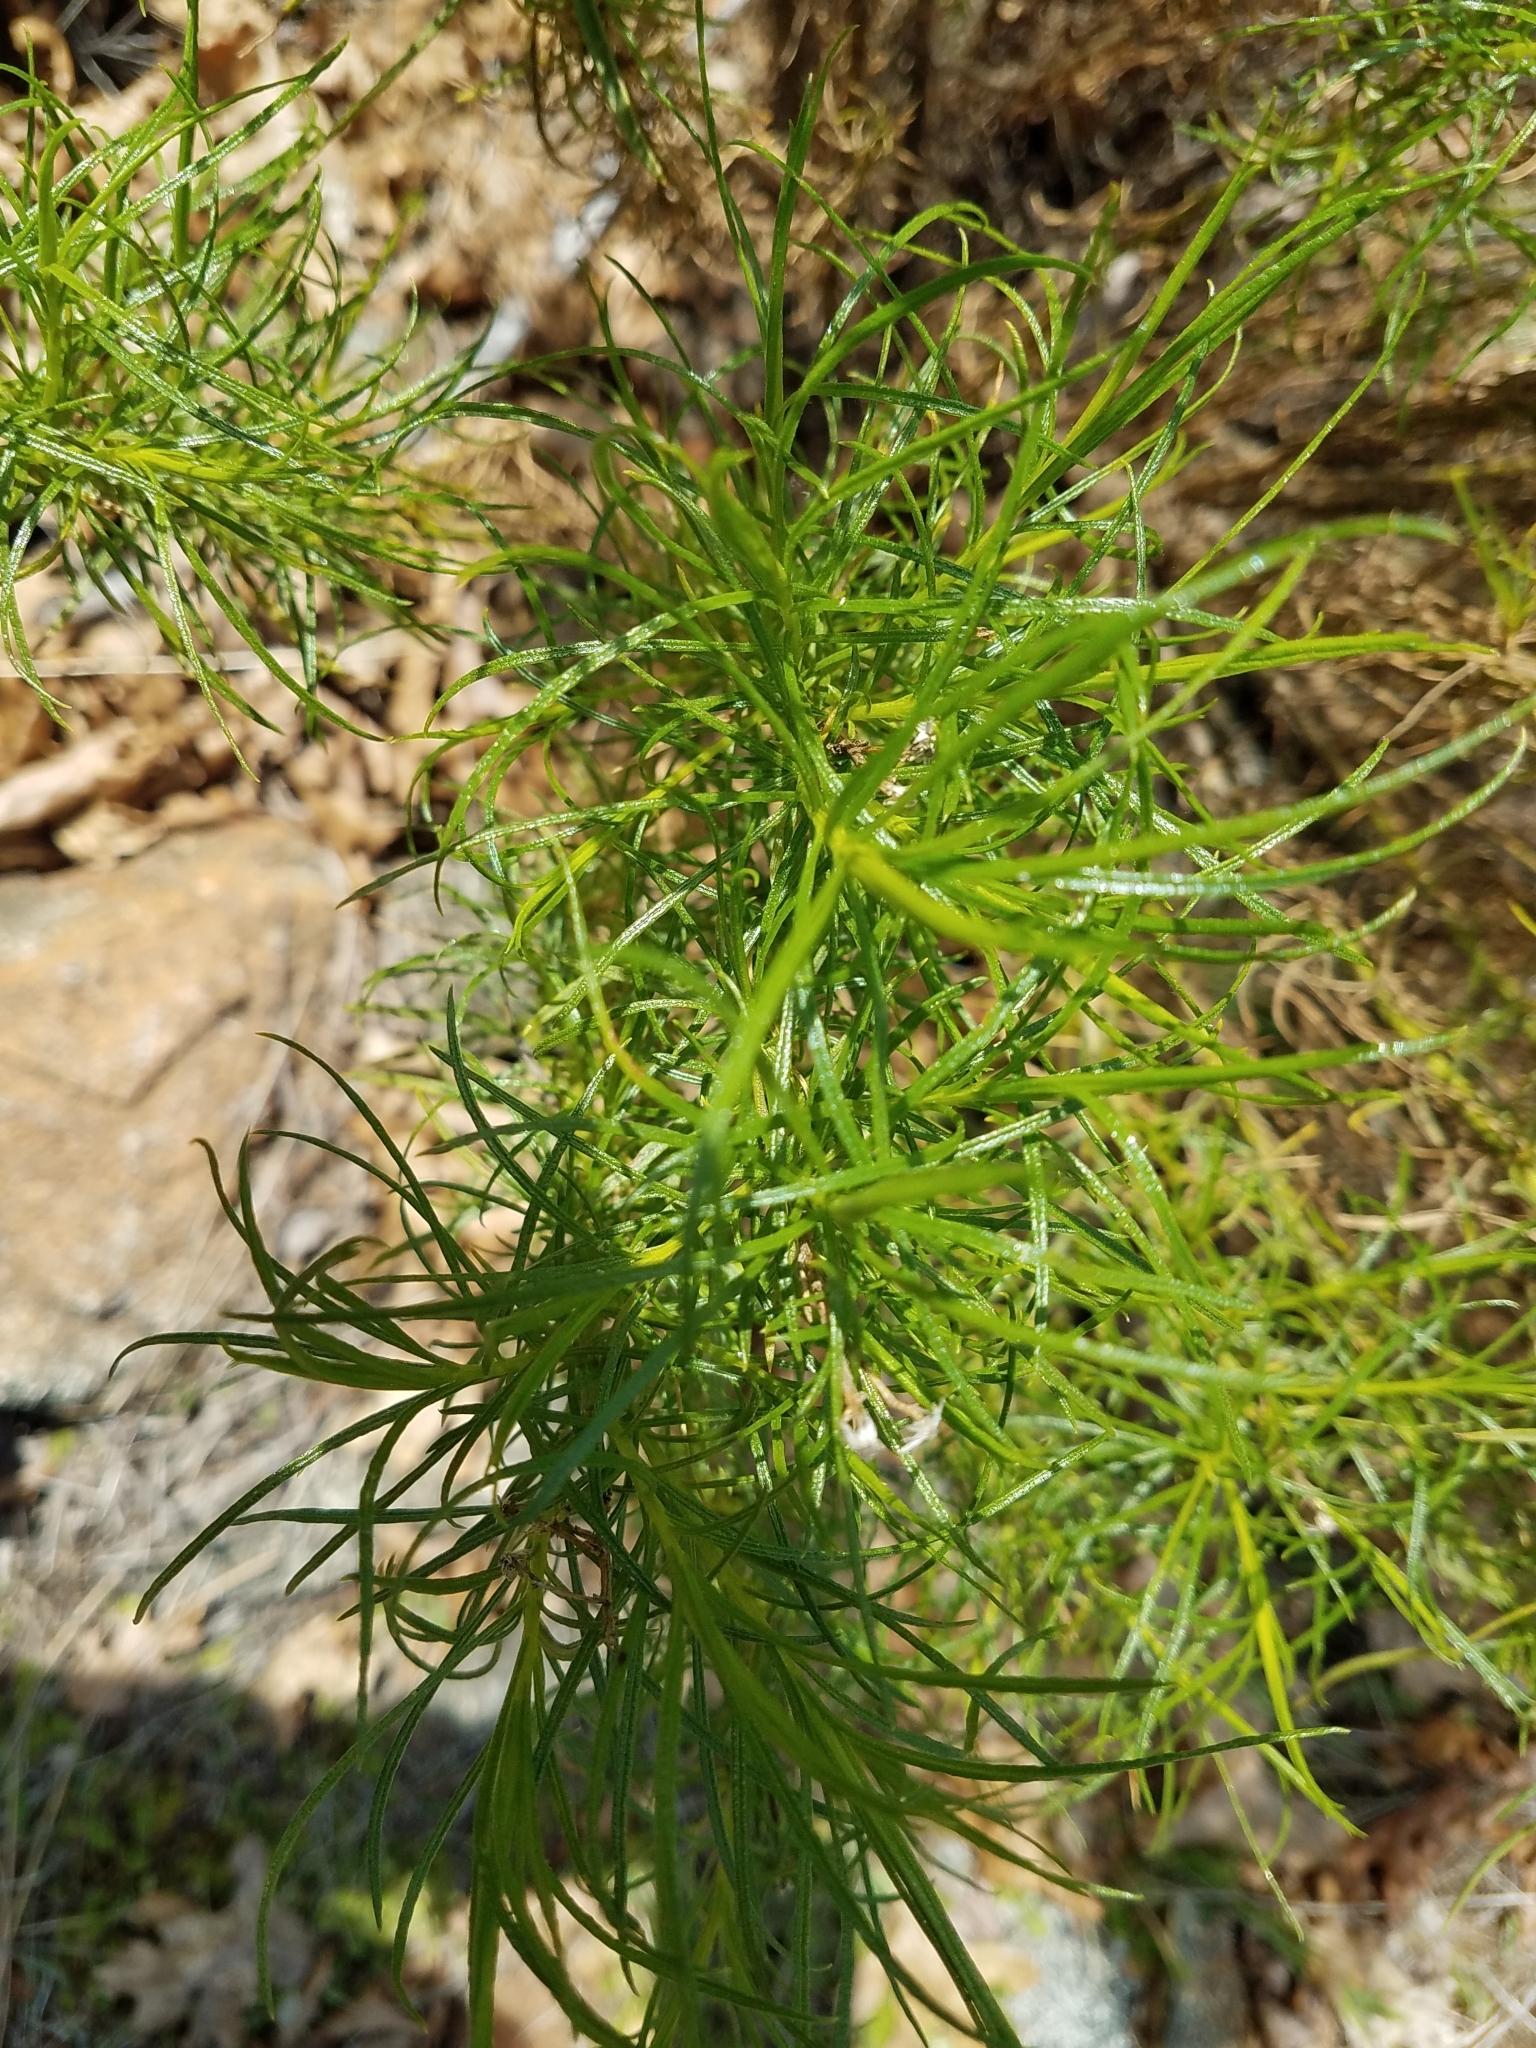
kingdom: Plantae
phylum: Tracheophyta
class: Magnoliopsida
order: Asterales
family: Asteraceae
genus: Ericameria
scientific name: Ericameria arborescens
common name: Goldenfleece
